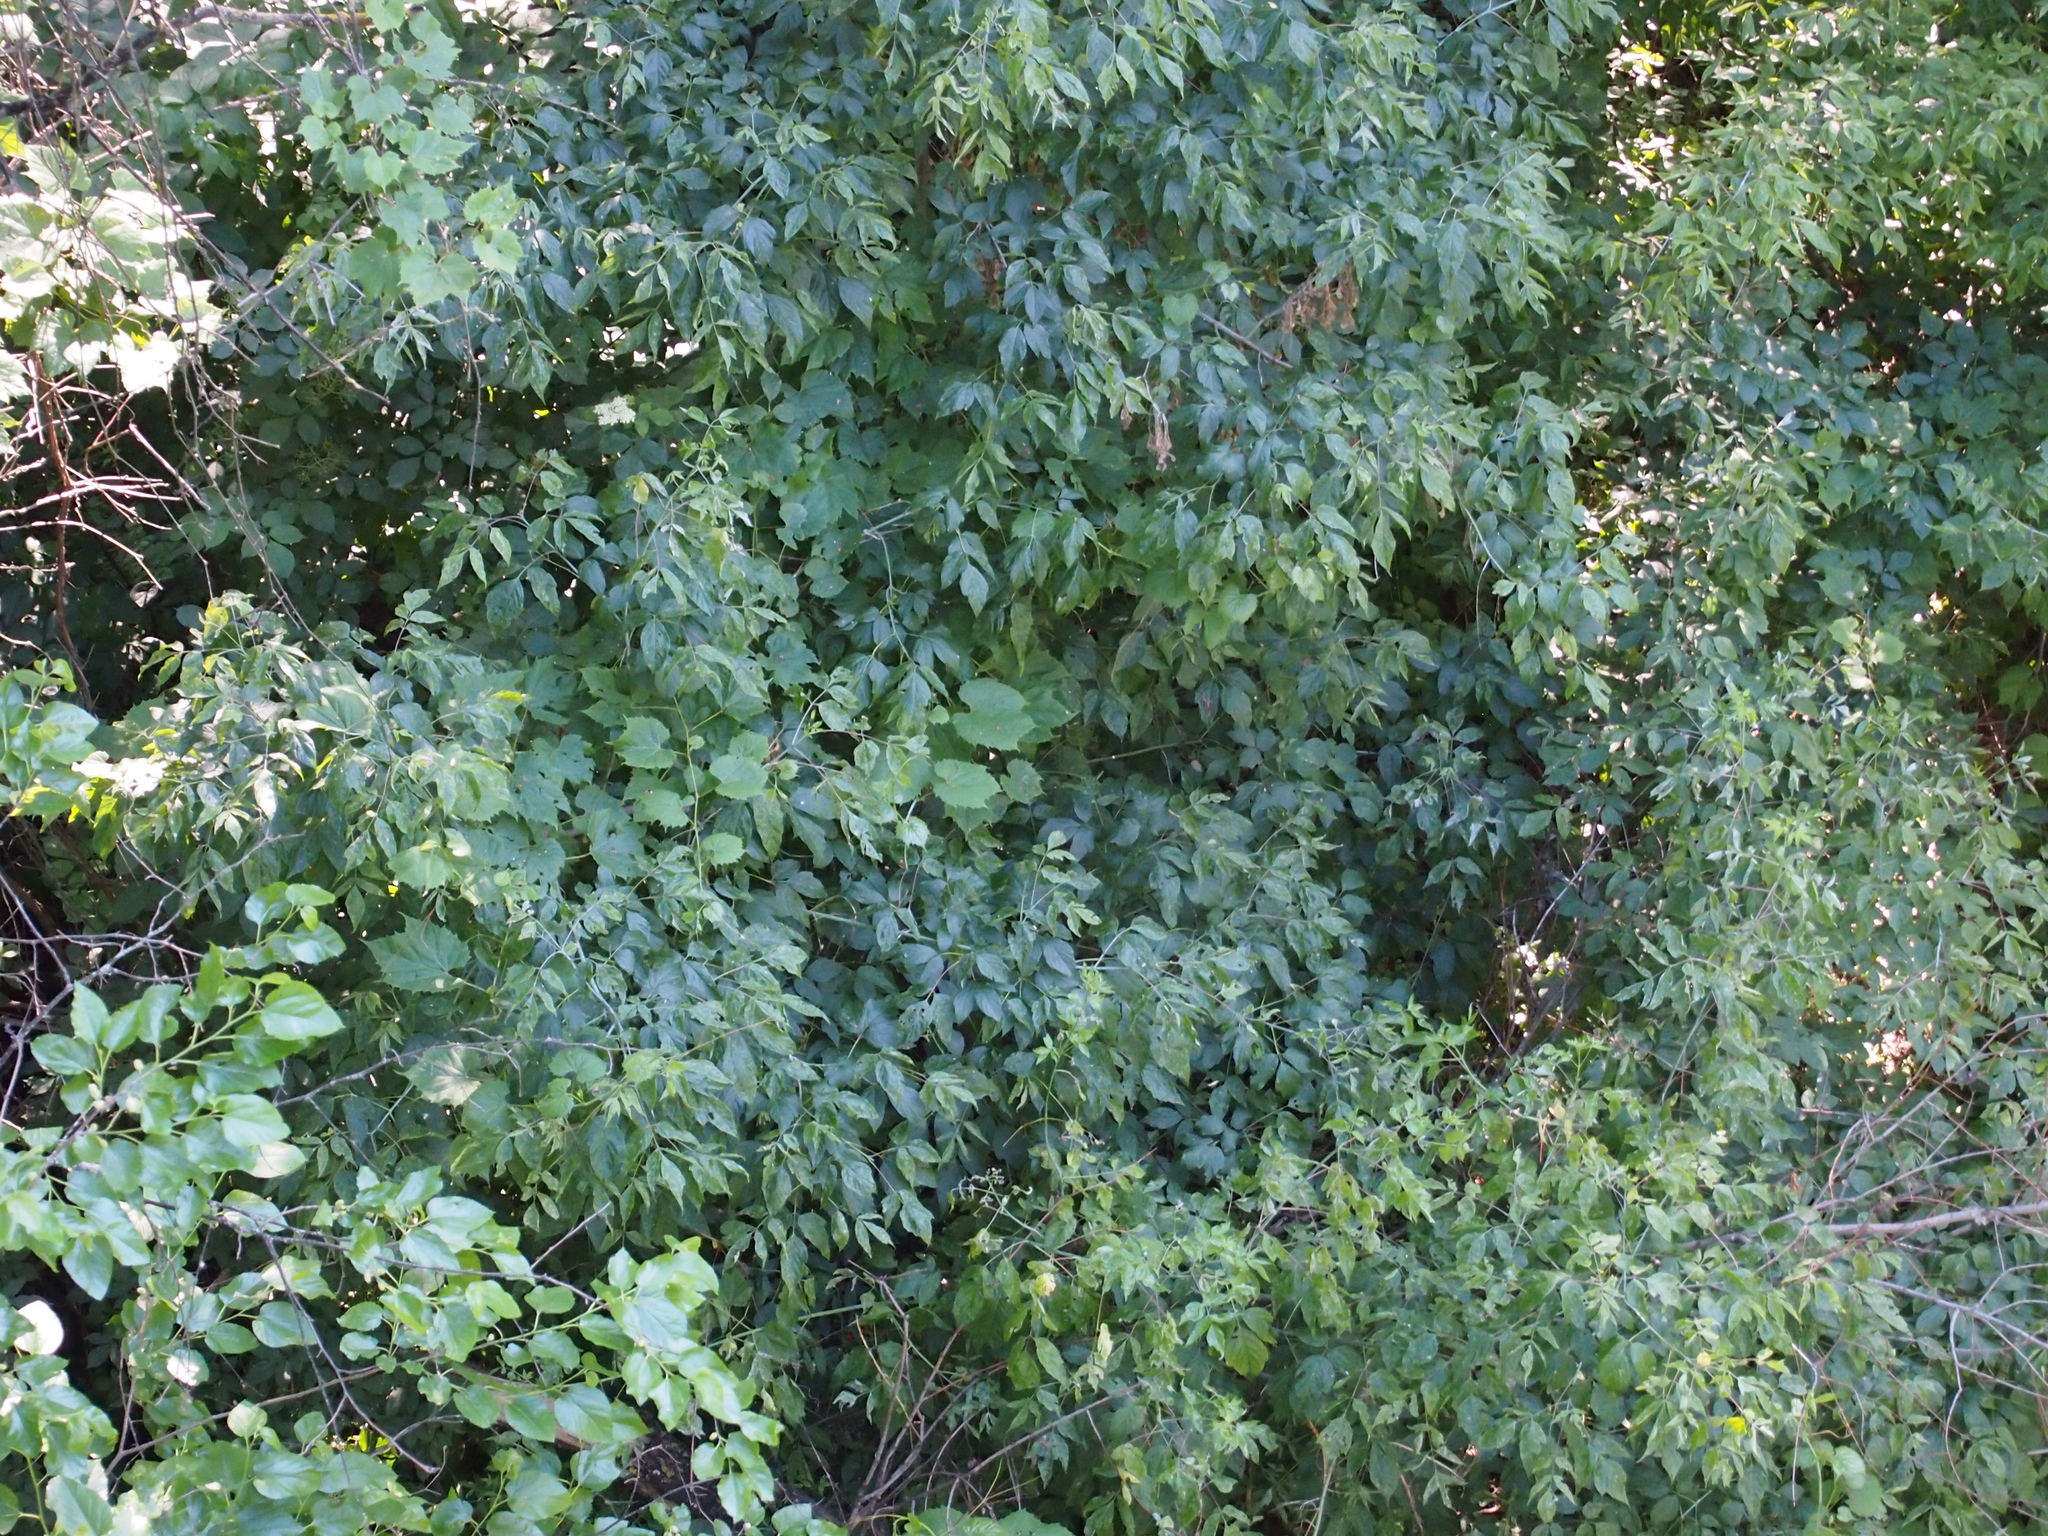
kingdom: Plantae
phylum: Tracheophyta
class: Magnoliopsida
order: Sapindales
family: Sapindaceae
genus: Acer
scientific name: Acer negundo
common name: Ashleaf maple
